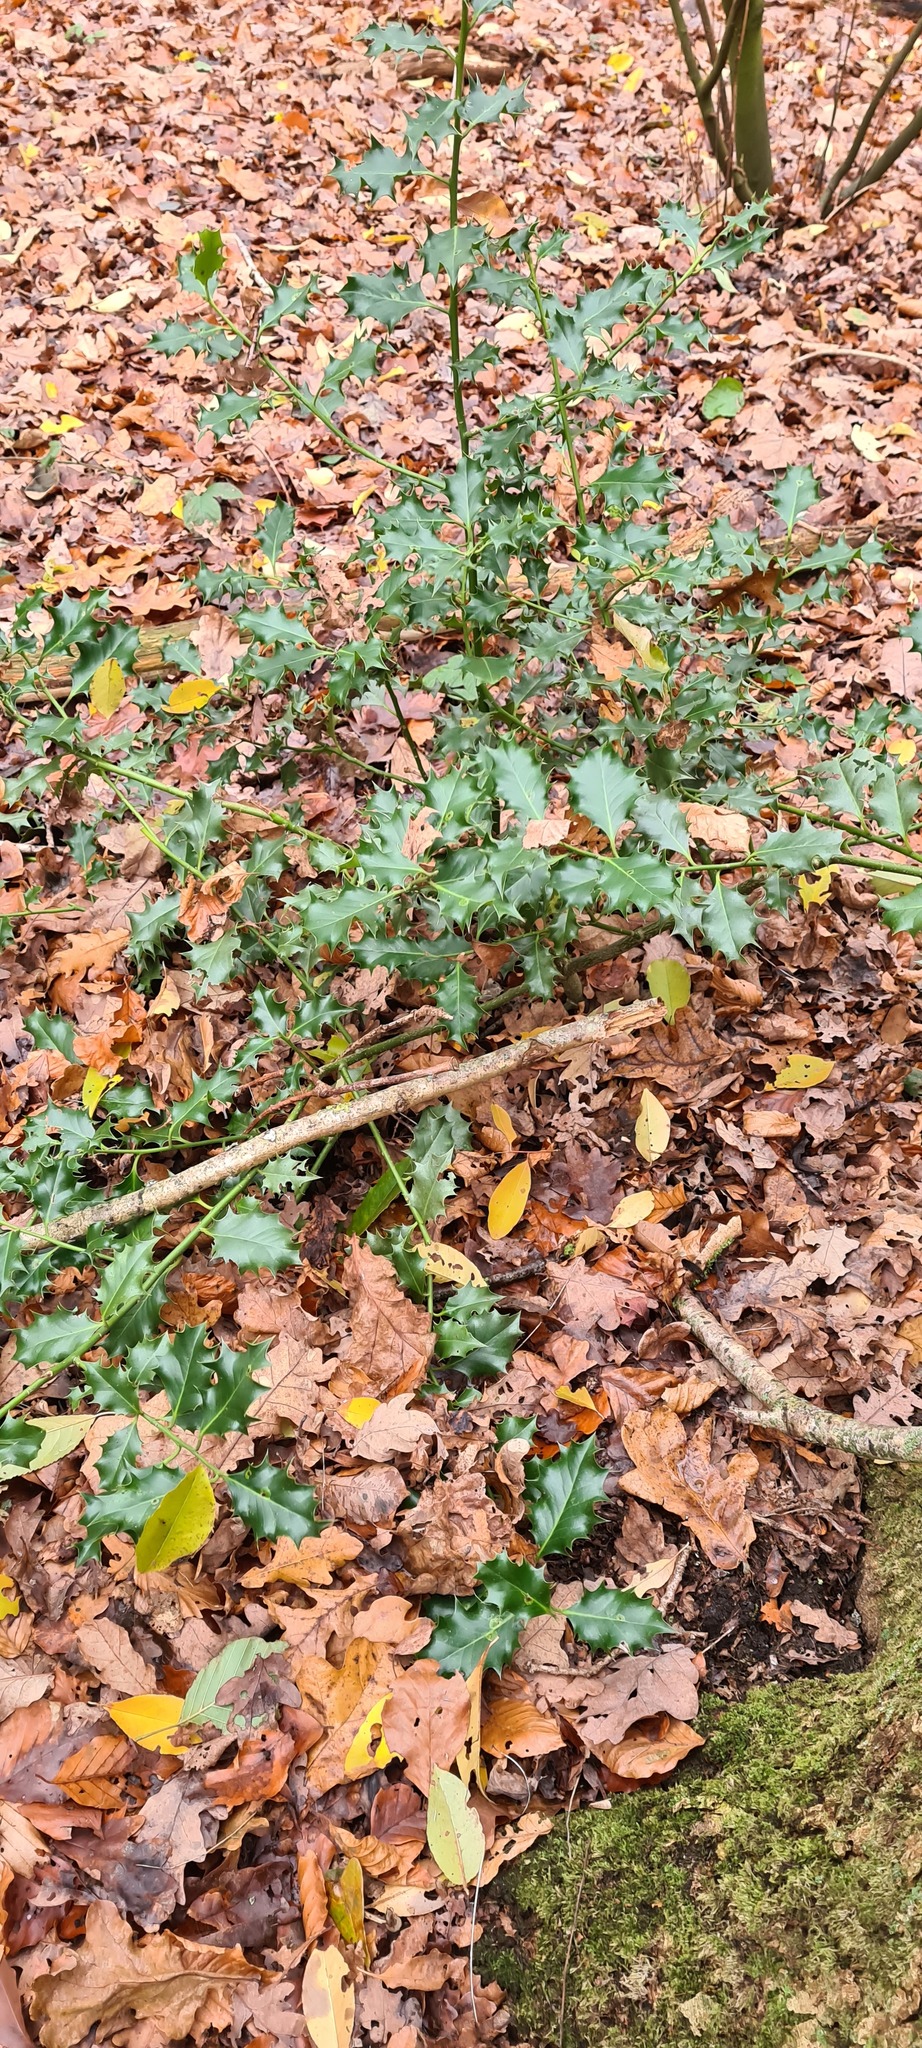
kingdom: Plantae
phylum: Tracheophyta
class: Magnoliopsida
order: Aquifoliales
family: Aquifoliaceae
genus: Ilex
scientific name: Ilex aquifolium
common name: English holly
